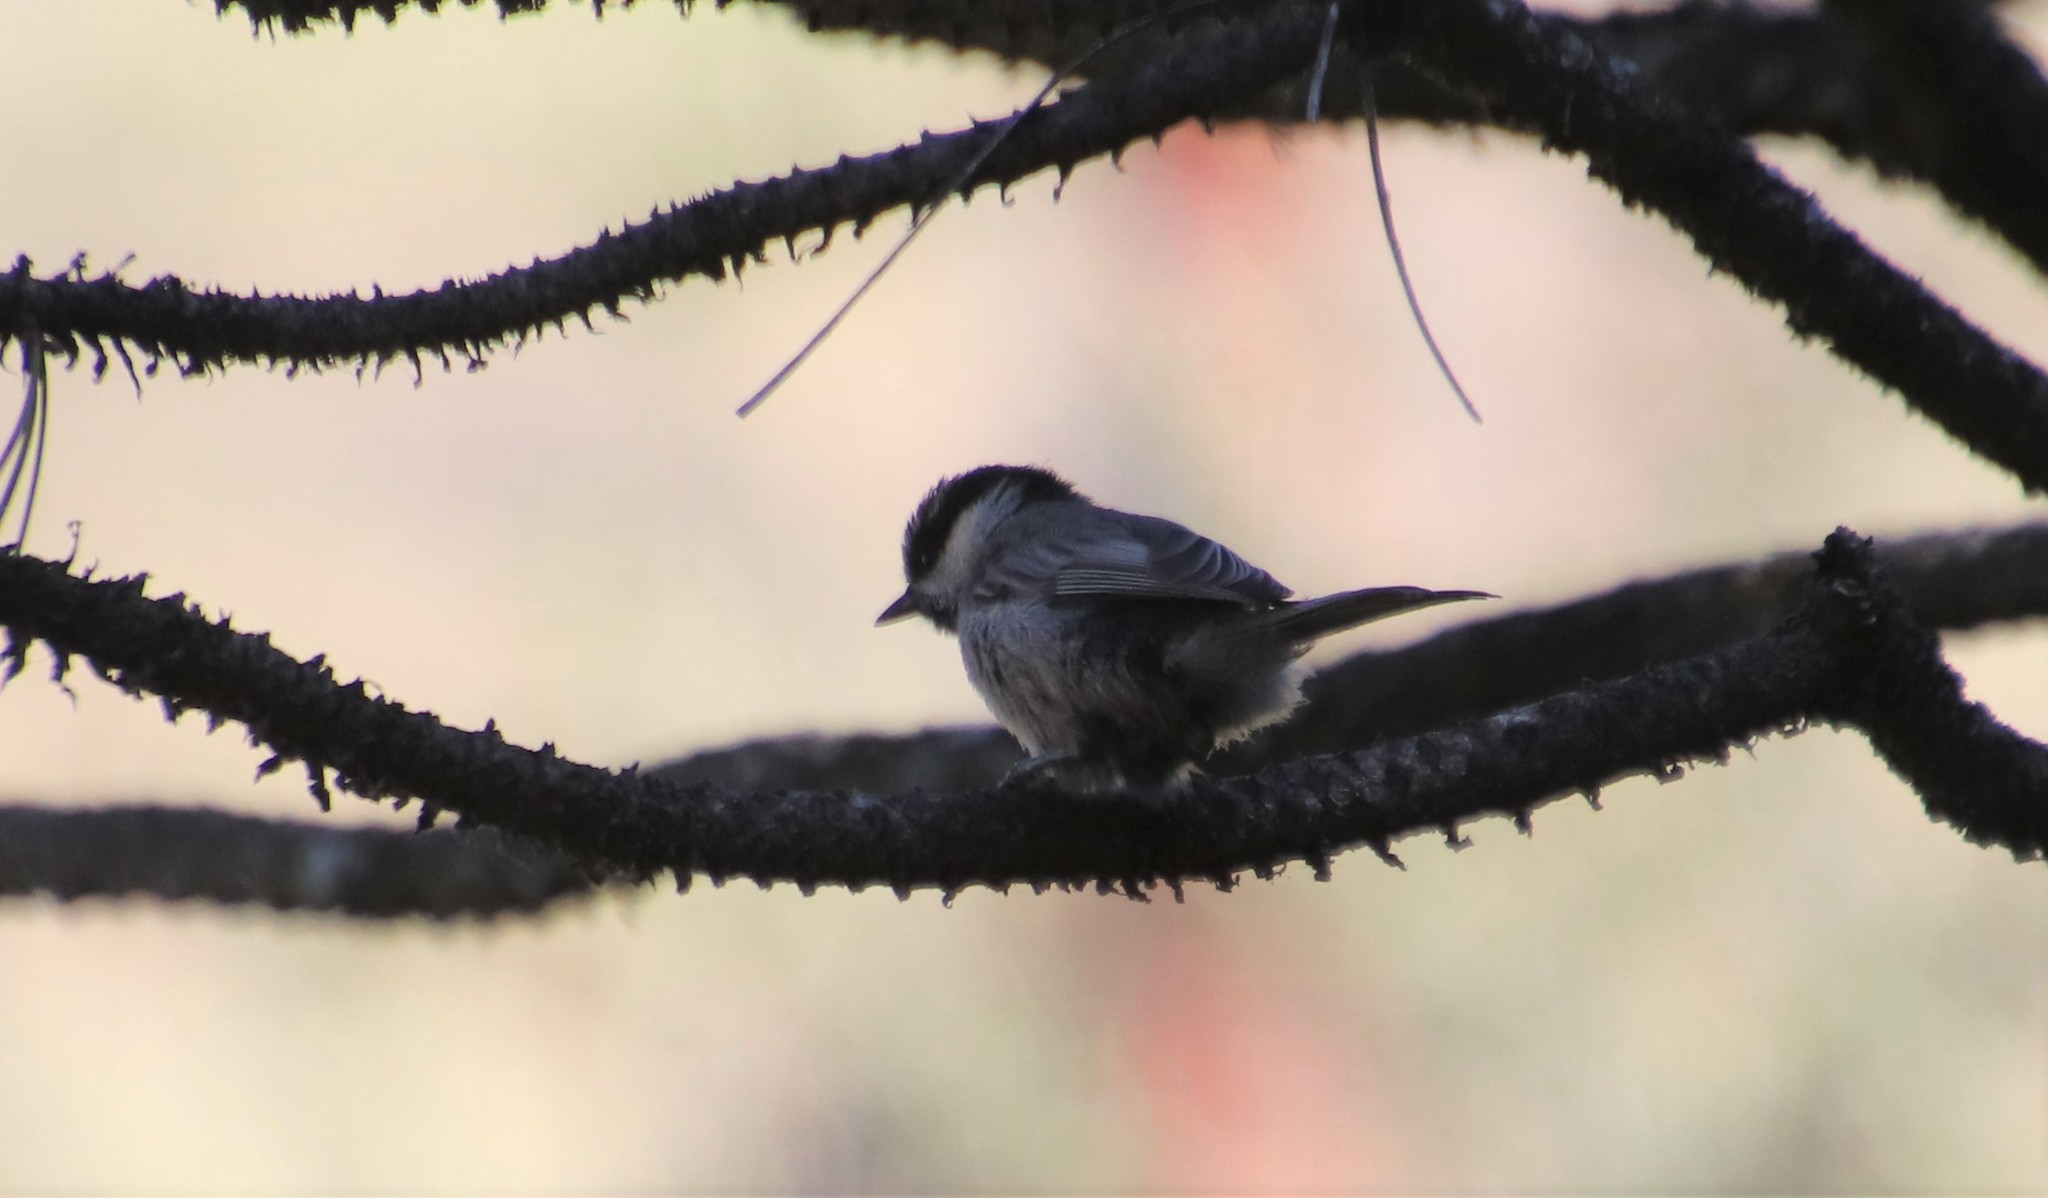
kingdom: Animalia
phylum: Chordata
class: Aves
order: Passeriformes
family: Paridae
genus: Poecile
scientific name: Poecile gambeli
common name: Mountain chickadee
